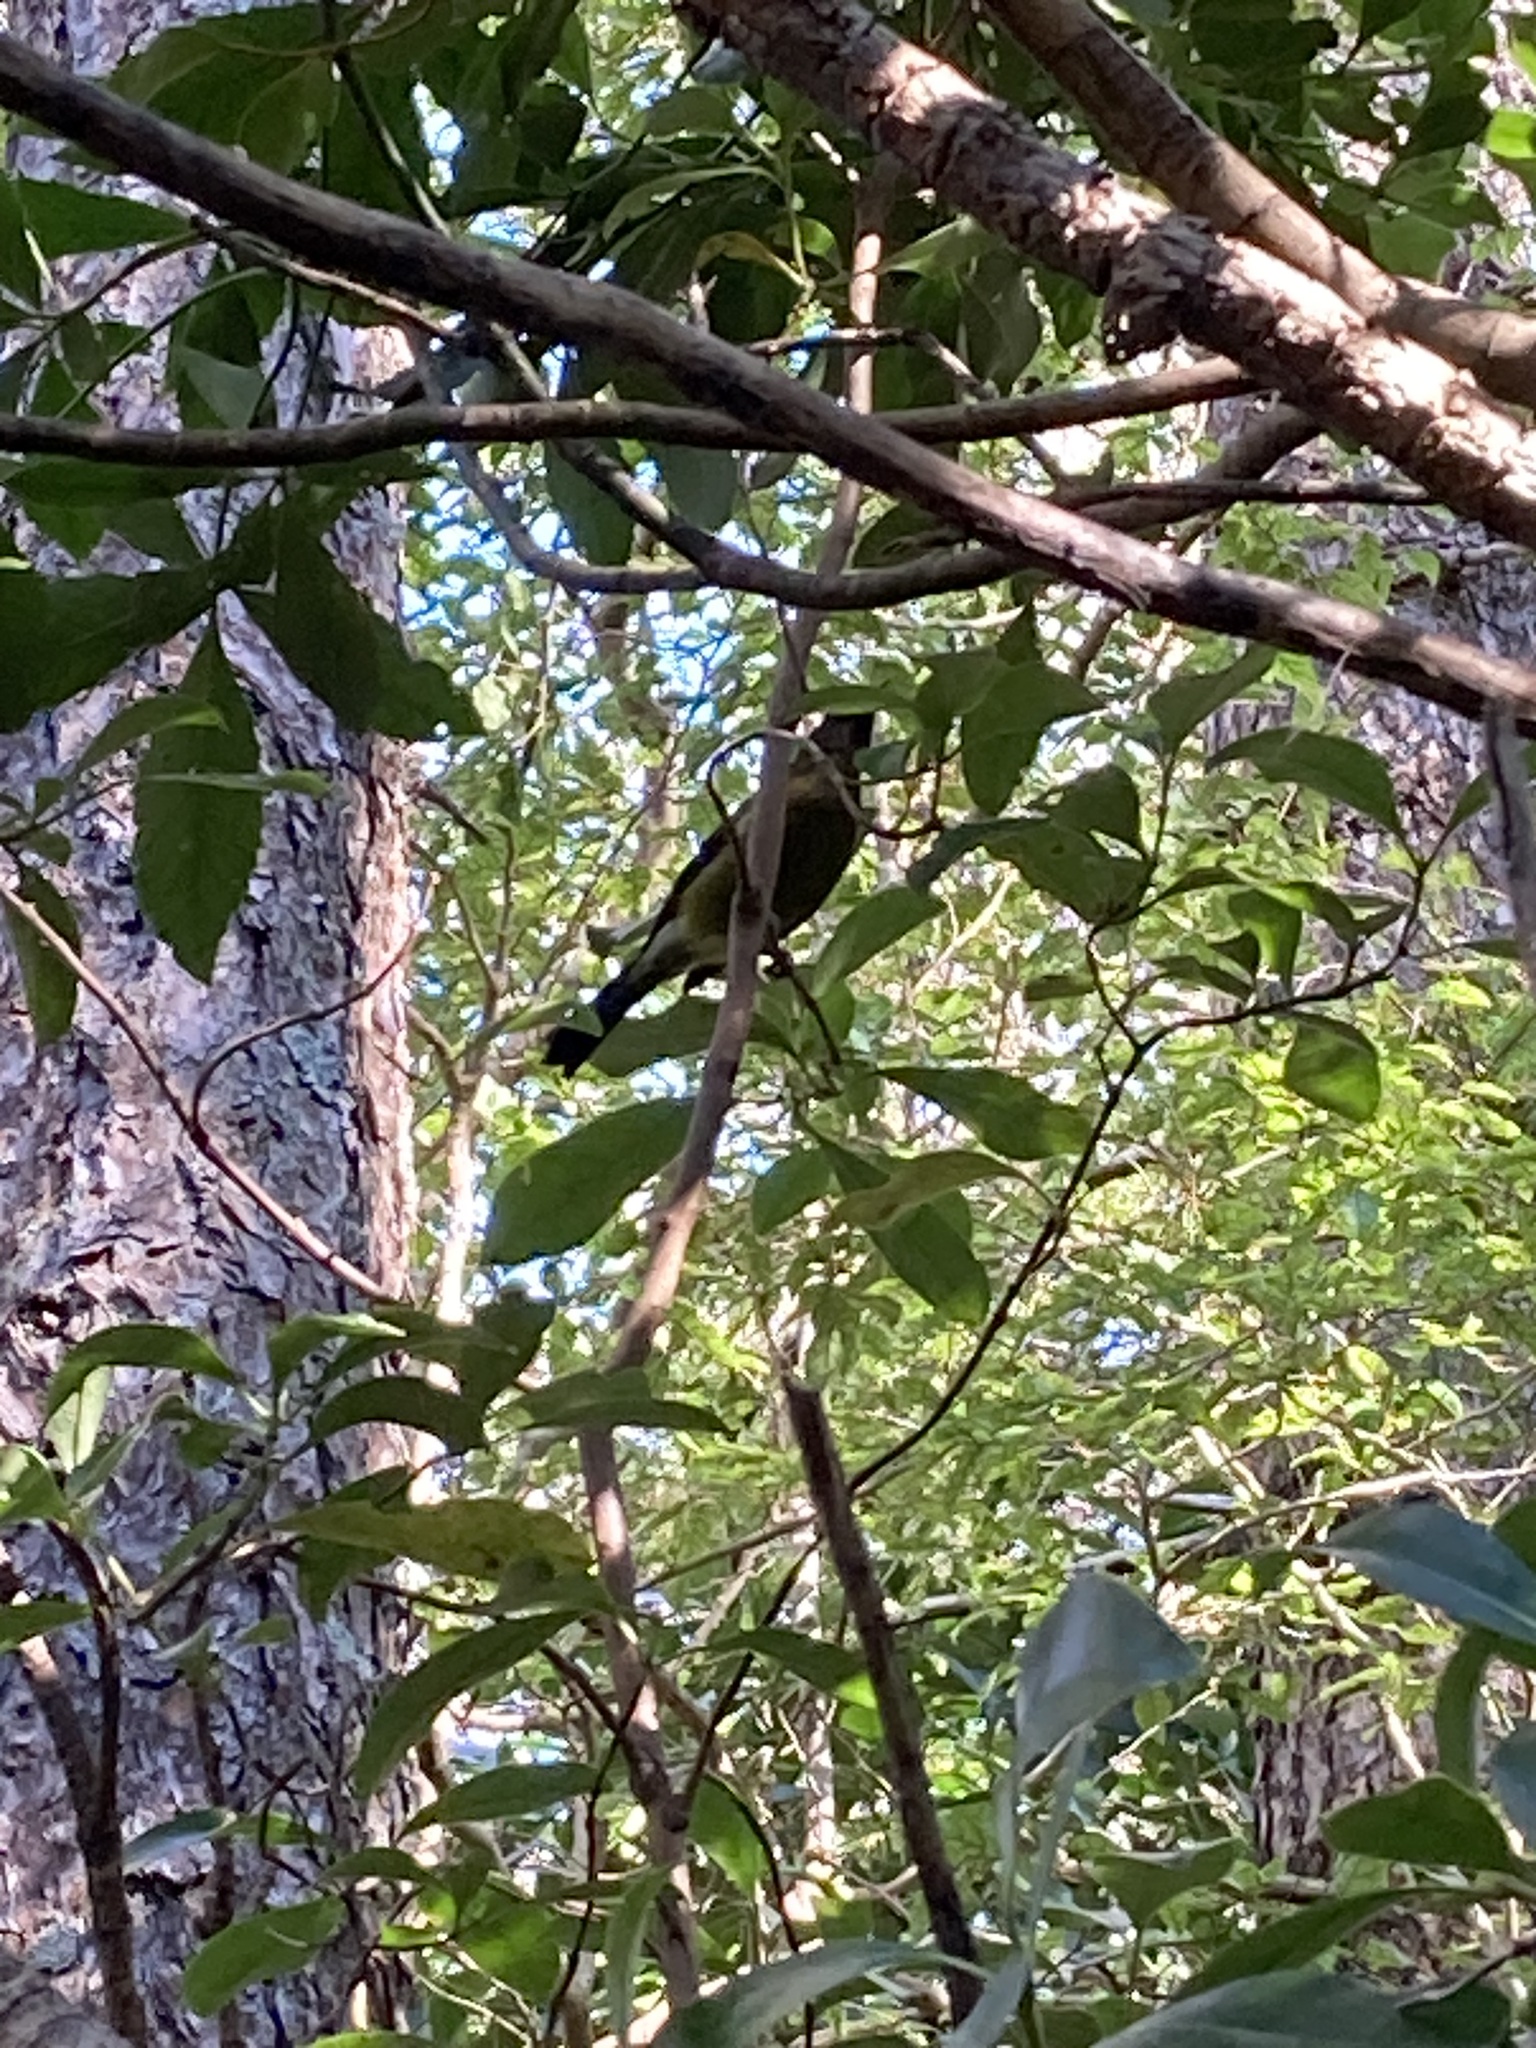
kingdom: Animalia
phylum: Chordata
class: Aves
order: Passeriformes
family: Meliphagidae
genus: Anthornis
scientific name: Anthornis melanura
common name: New zealand bellbird
